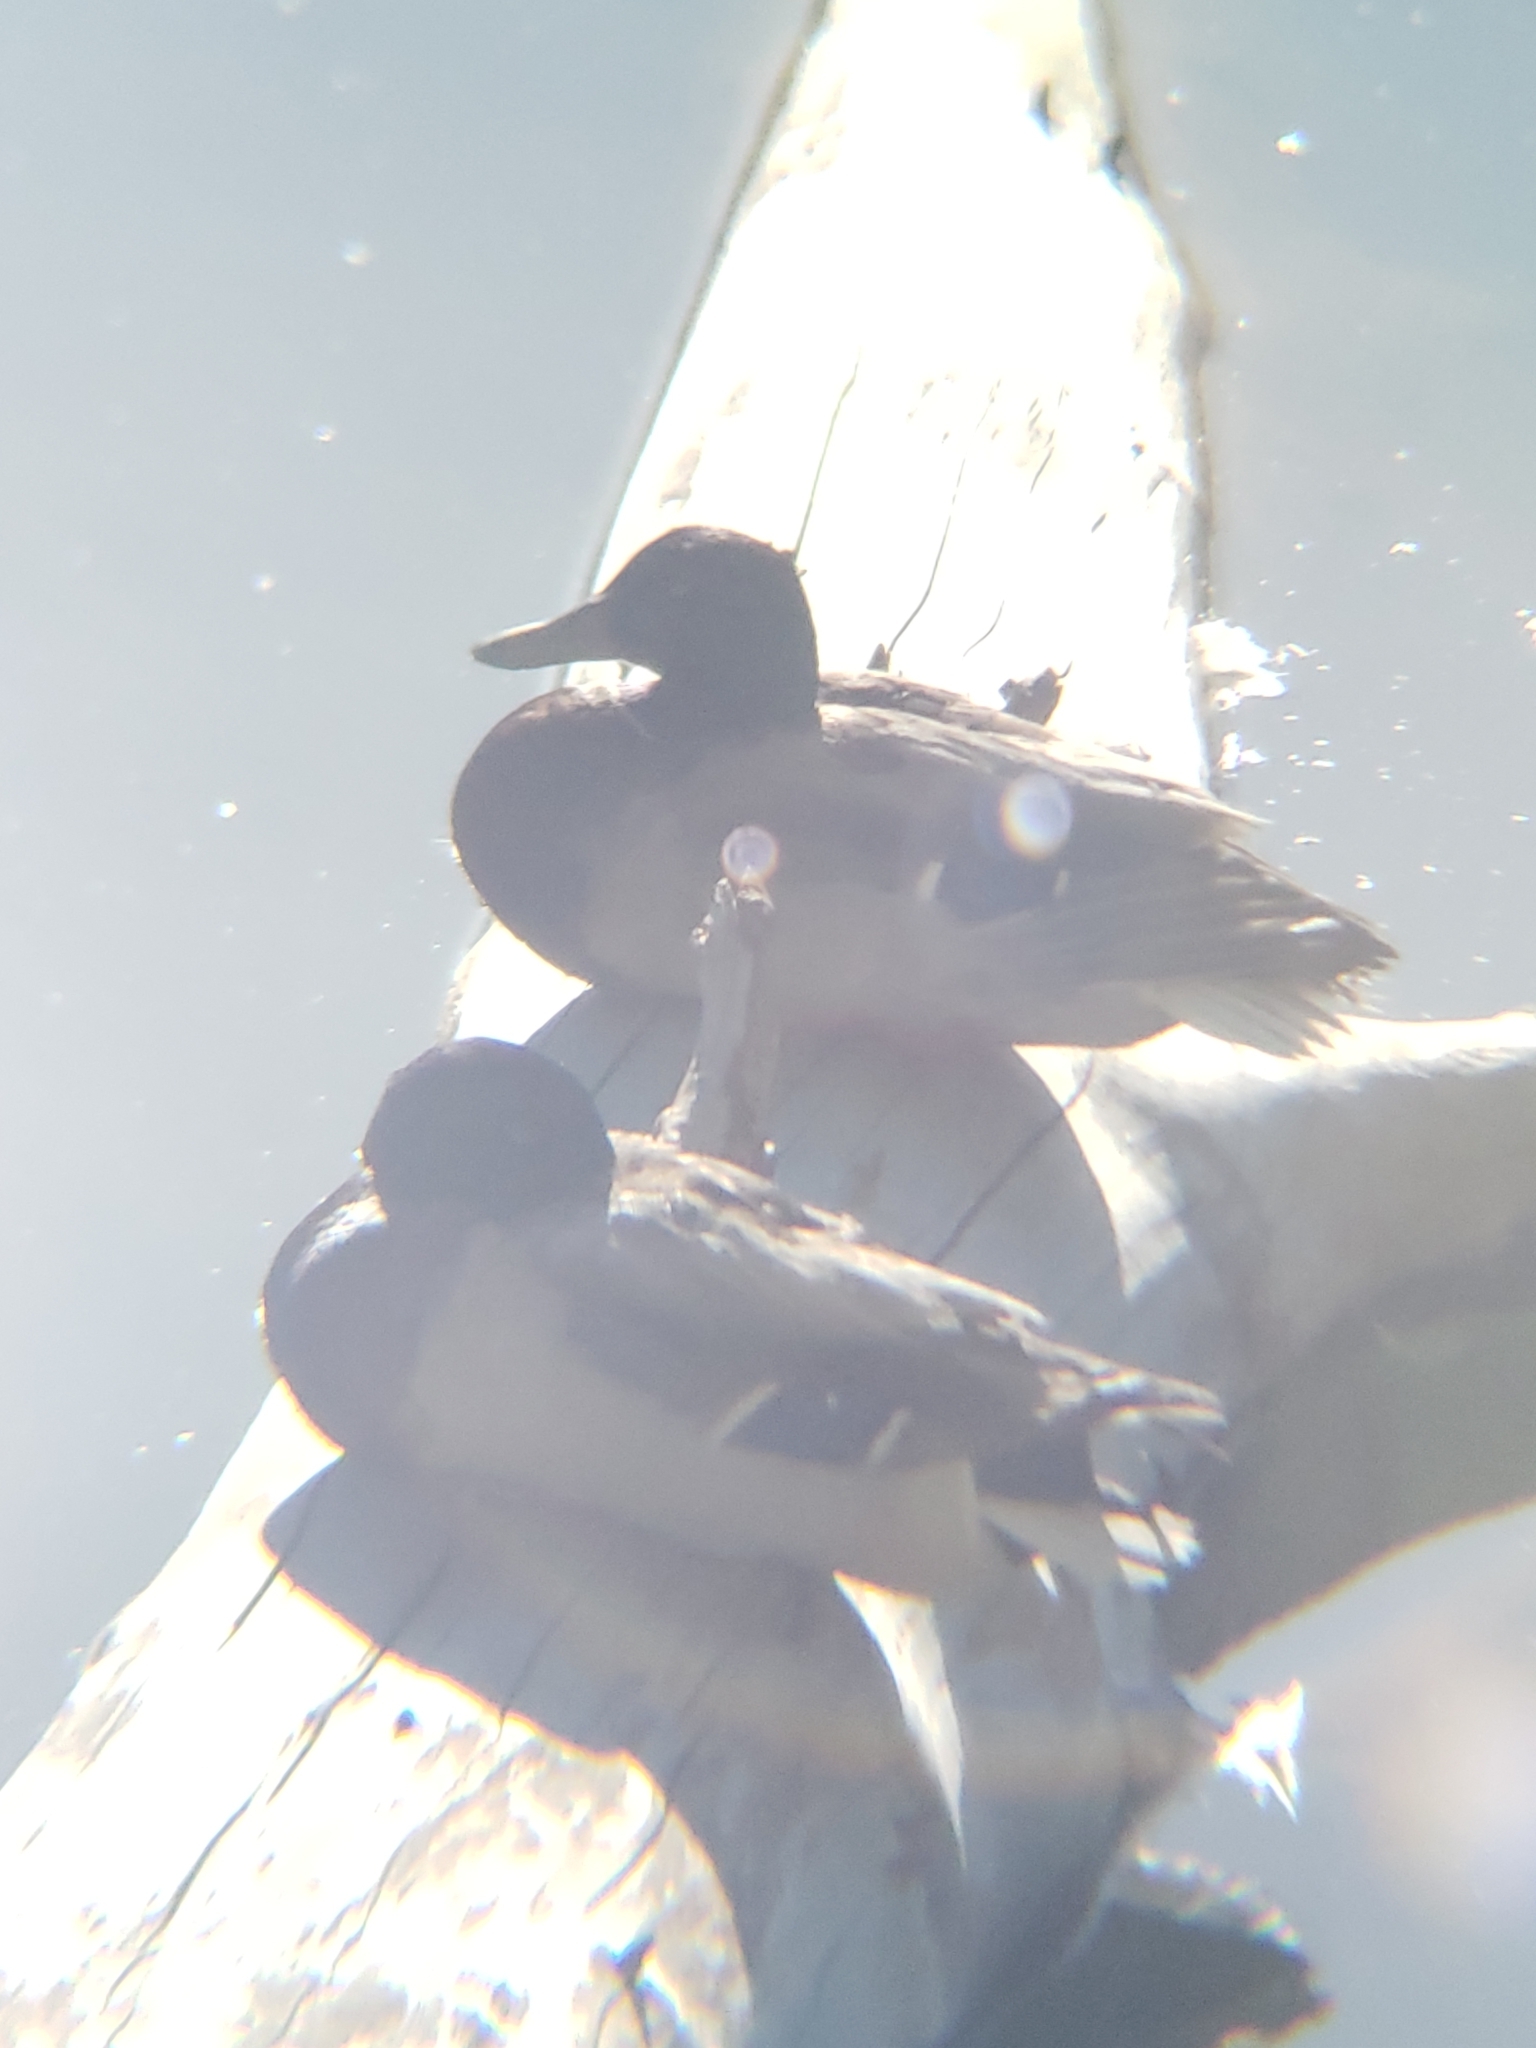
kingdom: Animalia
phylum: Chordata
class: Aves
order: Anseriformes
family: Anatidae
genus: Anas
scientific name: Anas platyrhynchos
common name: Mallard
